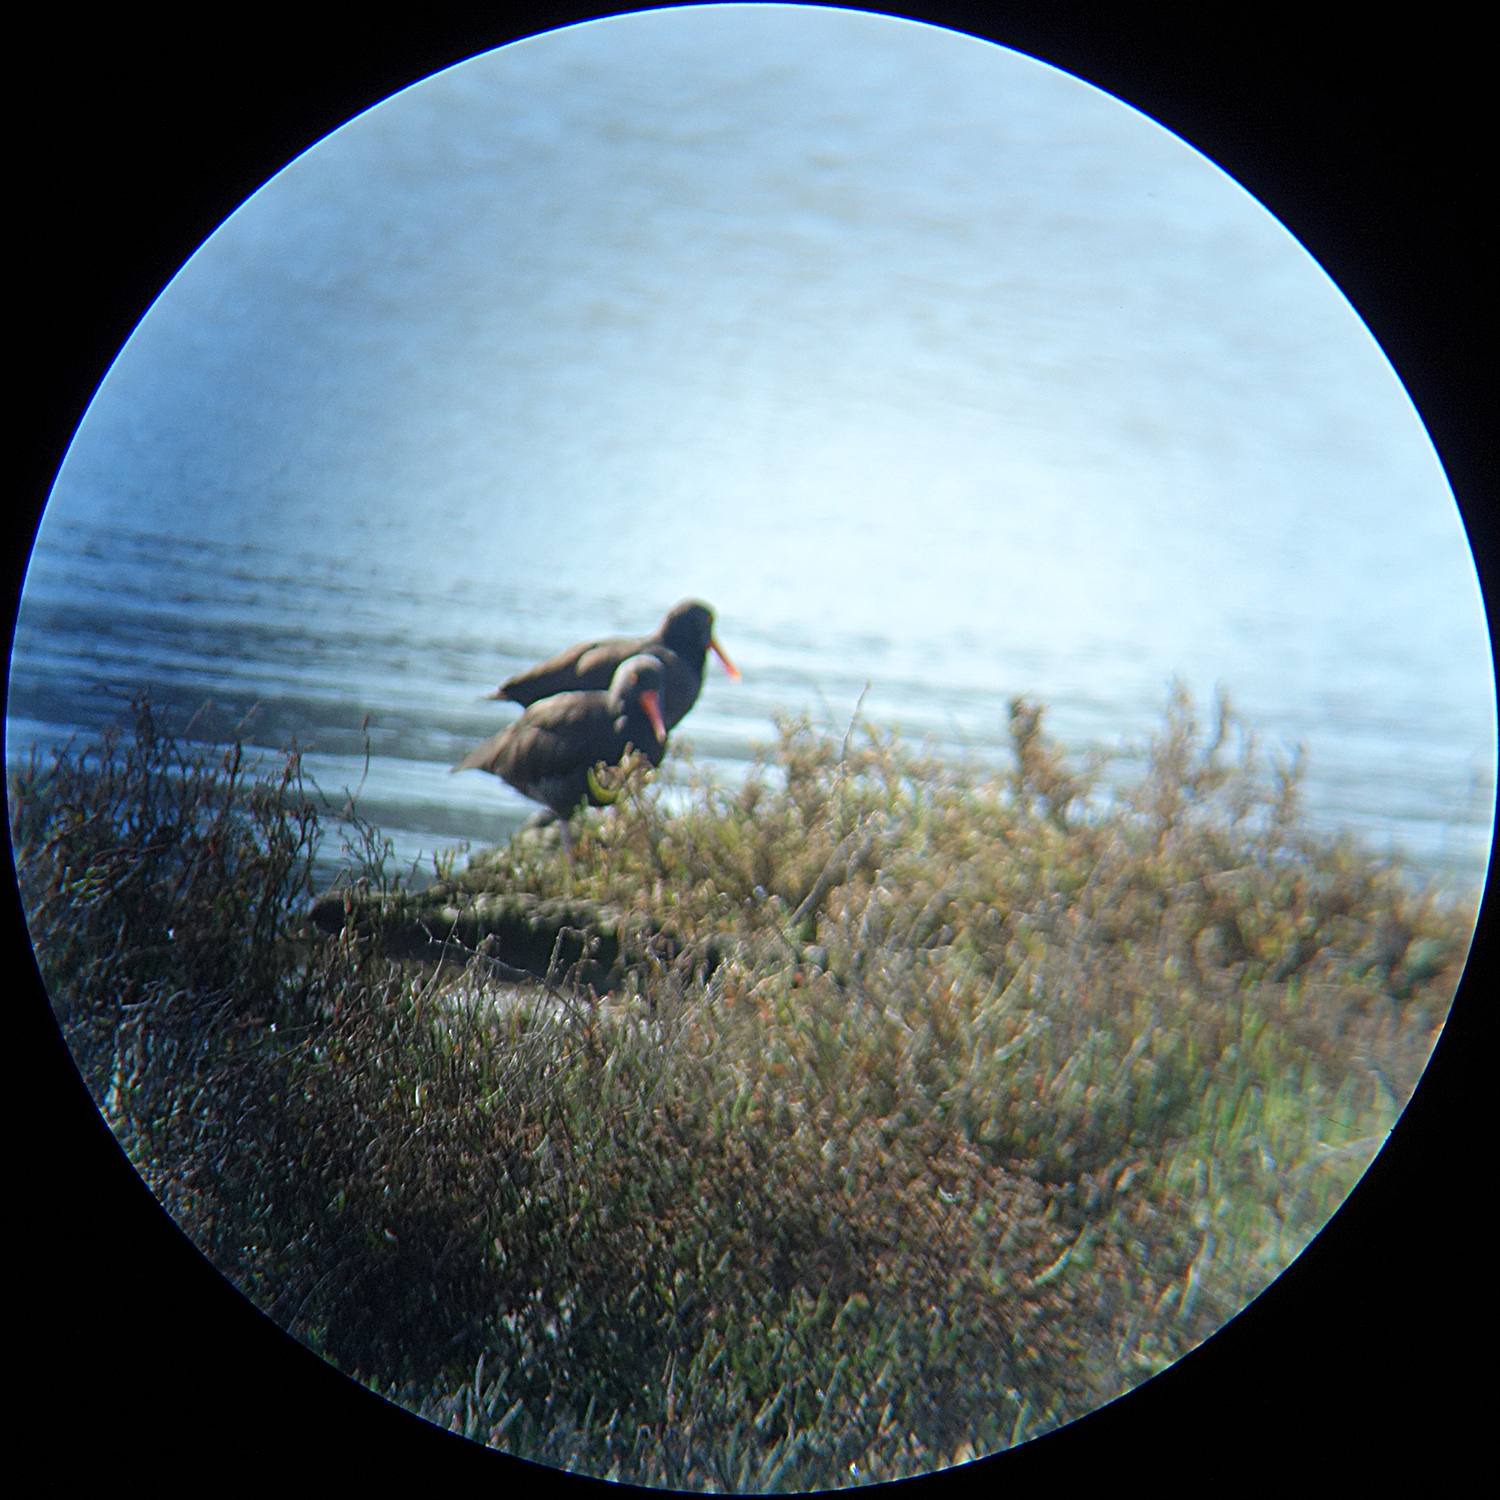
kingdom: Animalia
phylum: Chordata
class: Aves
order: Charadriiformes
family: Haematopodidae
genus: Haematopus
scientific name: Haematopus bachmani
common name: Black oystercatcher
